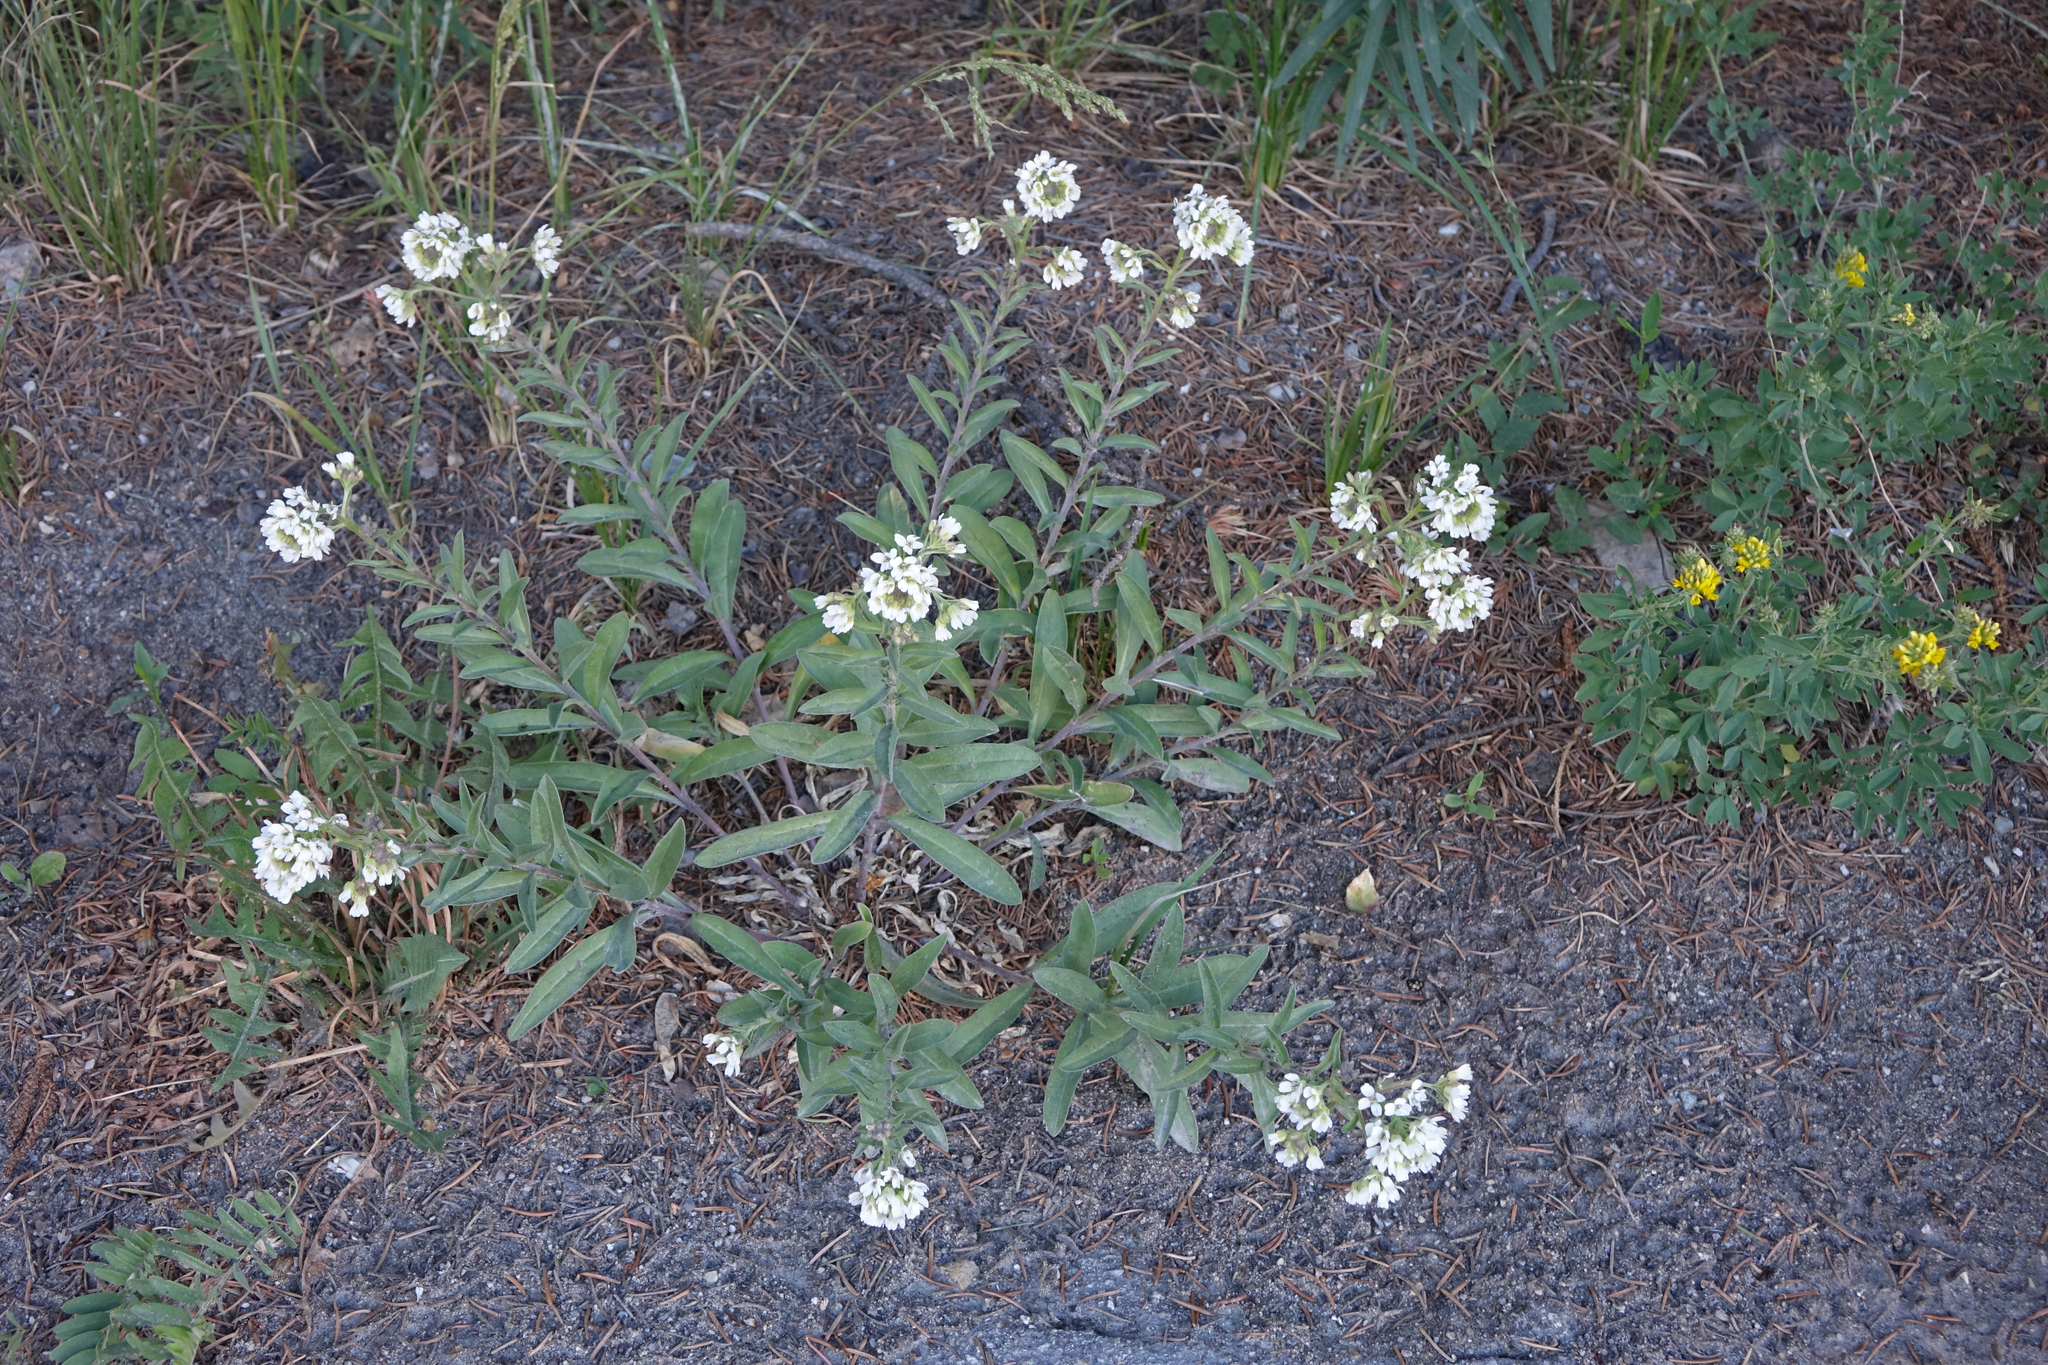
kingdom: Plantae
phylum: Tracheophyta
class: Magnoliopsida
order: Brassicales
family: Brassicaceae
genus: Berteroa
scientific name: Berteroa incana
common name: Hoary alison
